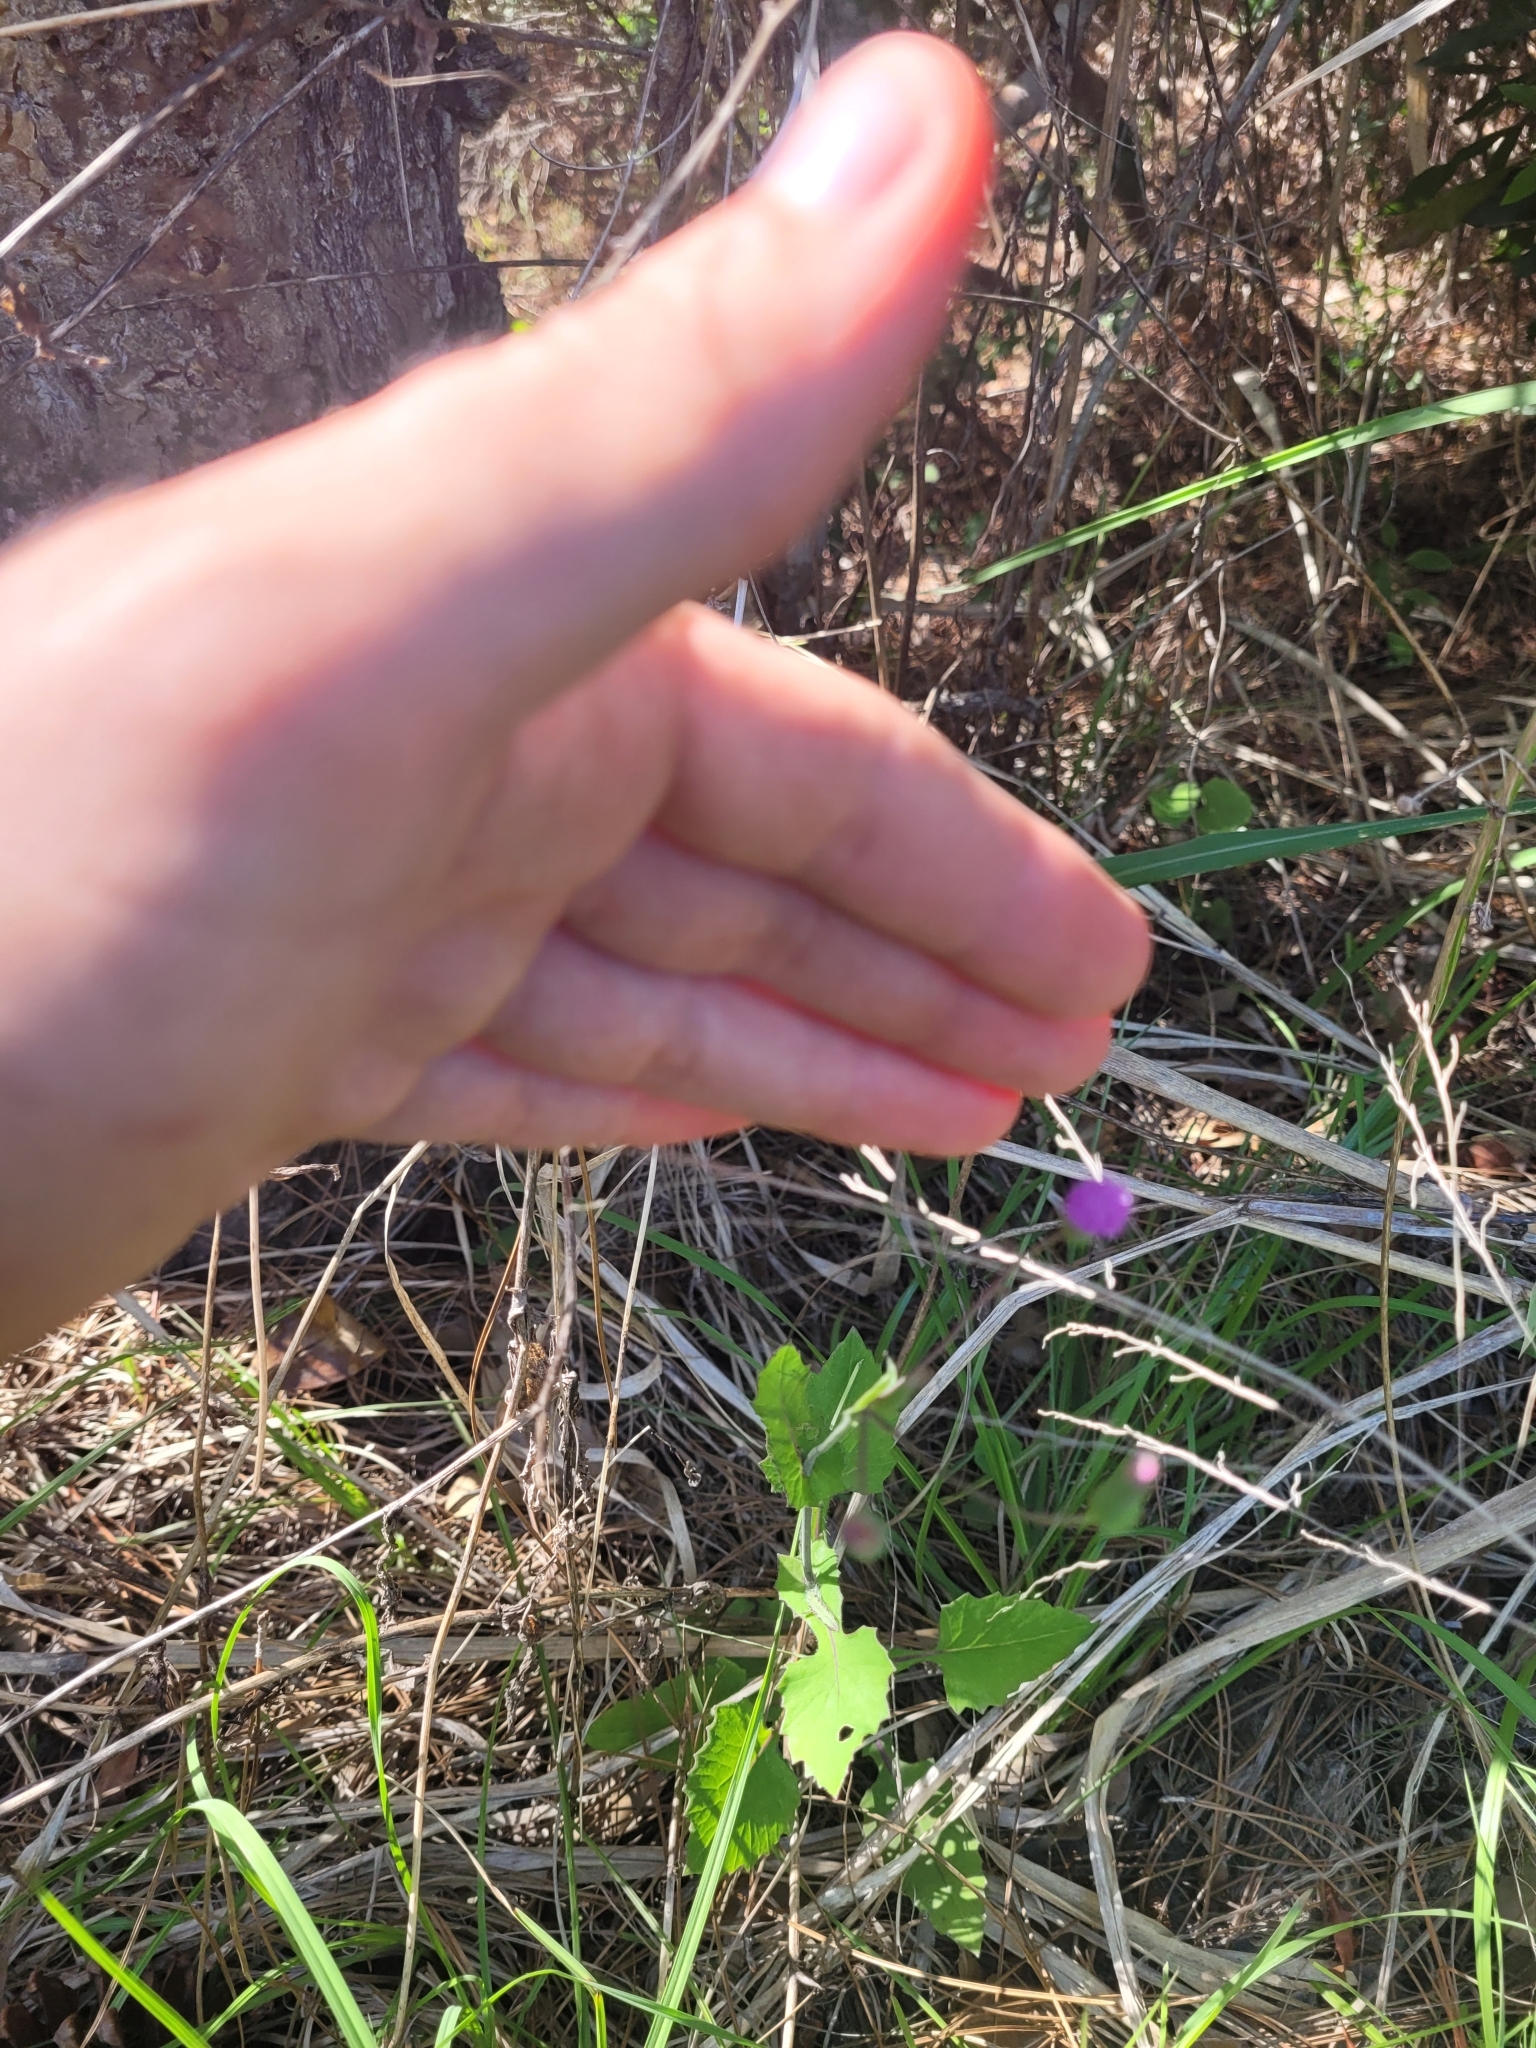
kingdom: Plantae
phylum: Tracheophyta
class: Magnoliopsida
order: Asterales
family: Asteraceae
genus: Emilia
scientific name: Emilia sonchifolia
